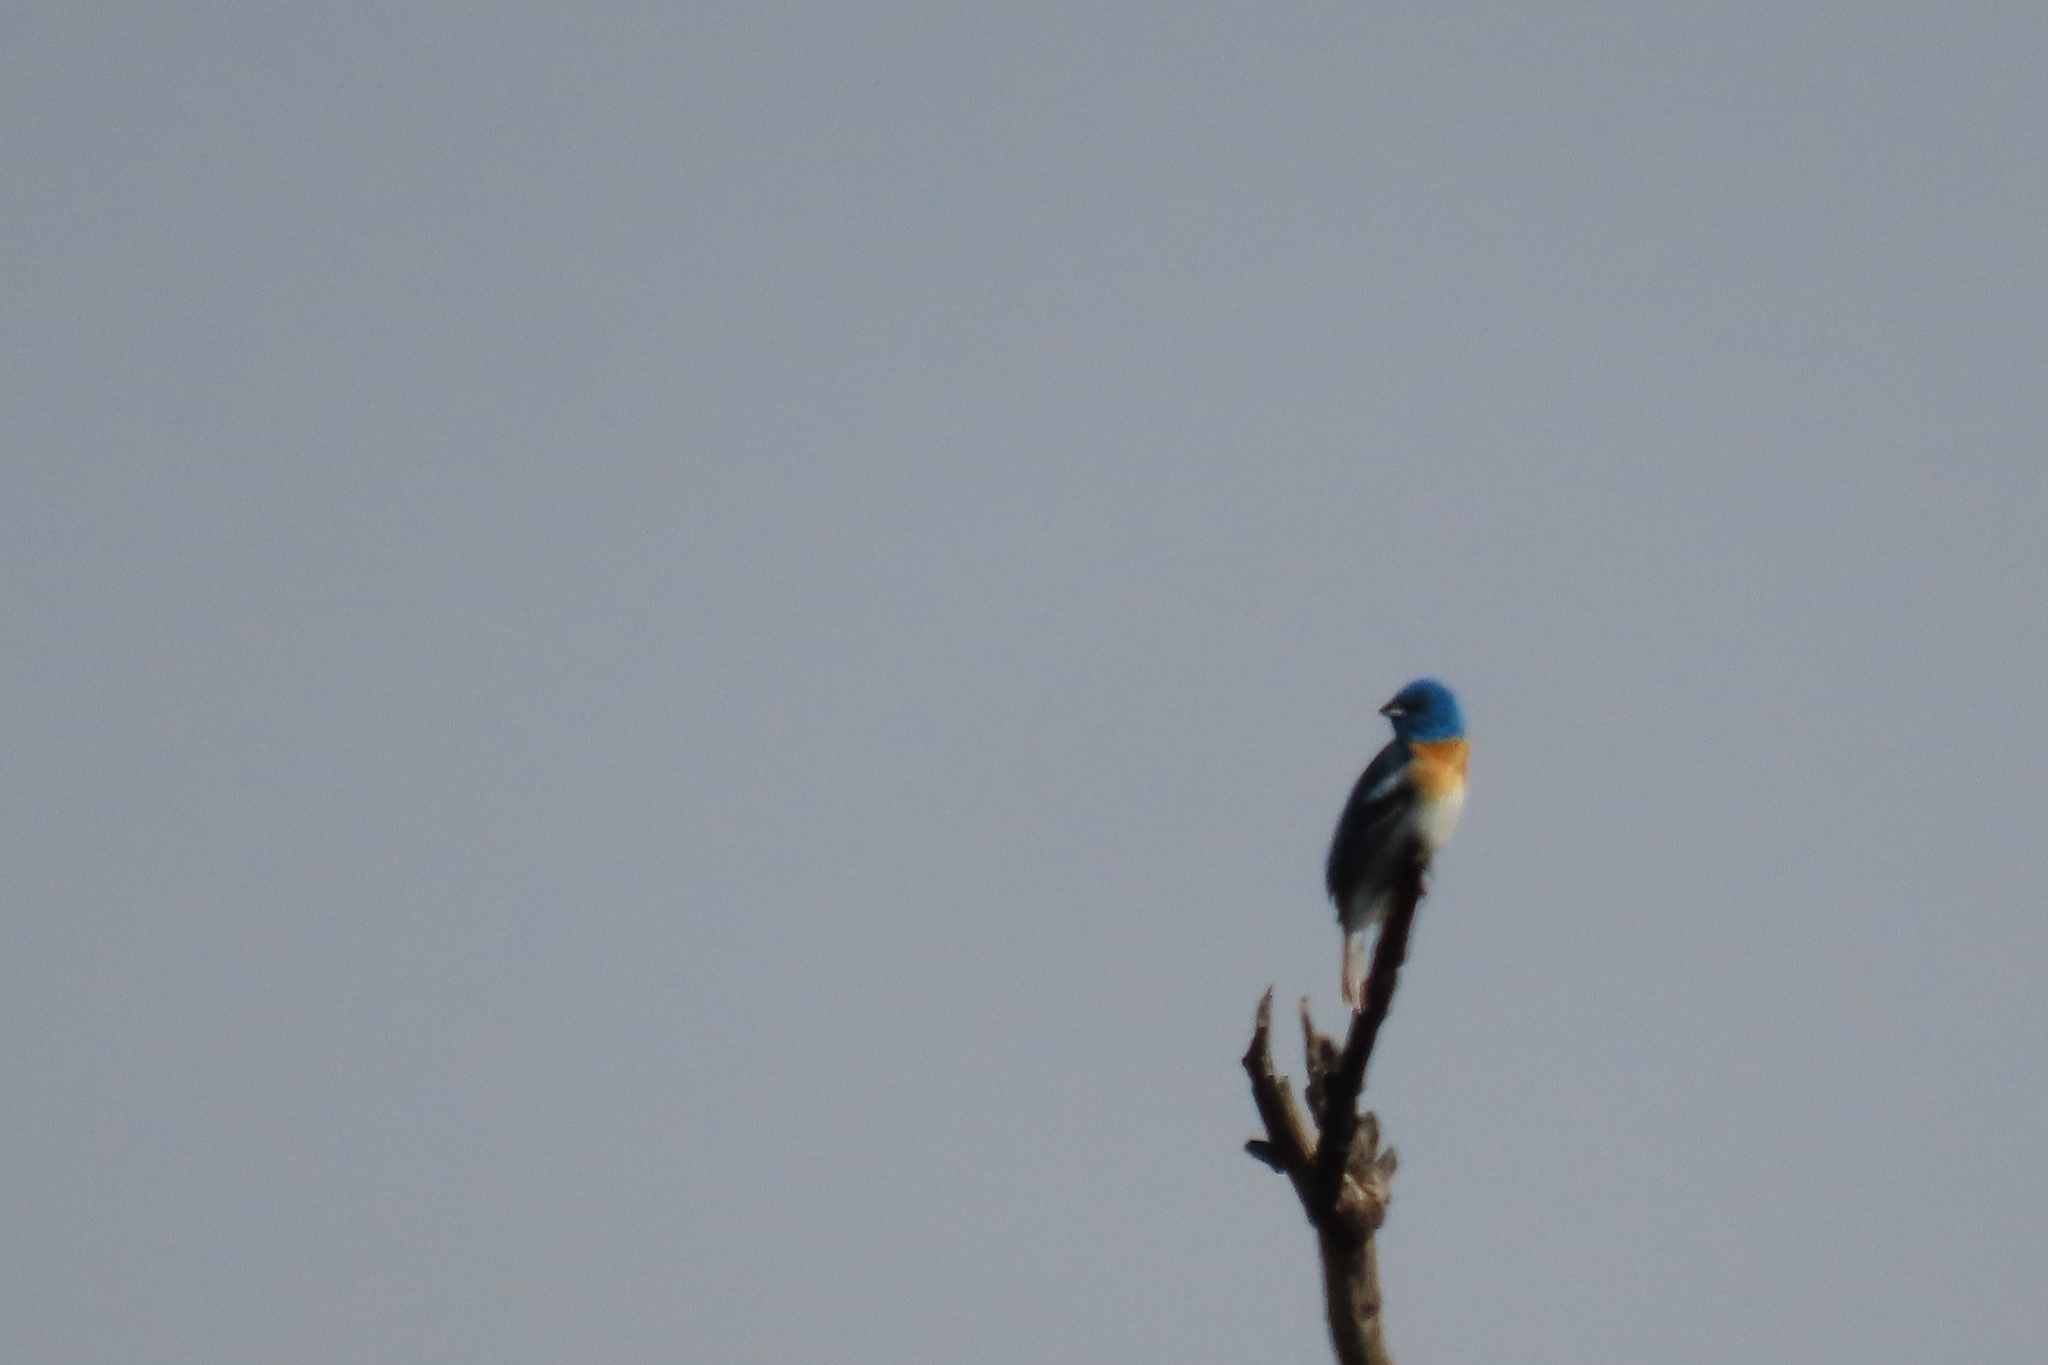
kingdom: Animalia
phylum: Chordata
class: Aves
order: Passeriformes
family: Cardinalidae
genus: Passerina
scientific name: Passerina amoena
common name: Lazuli bunting
